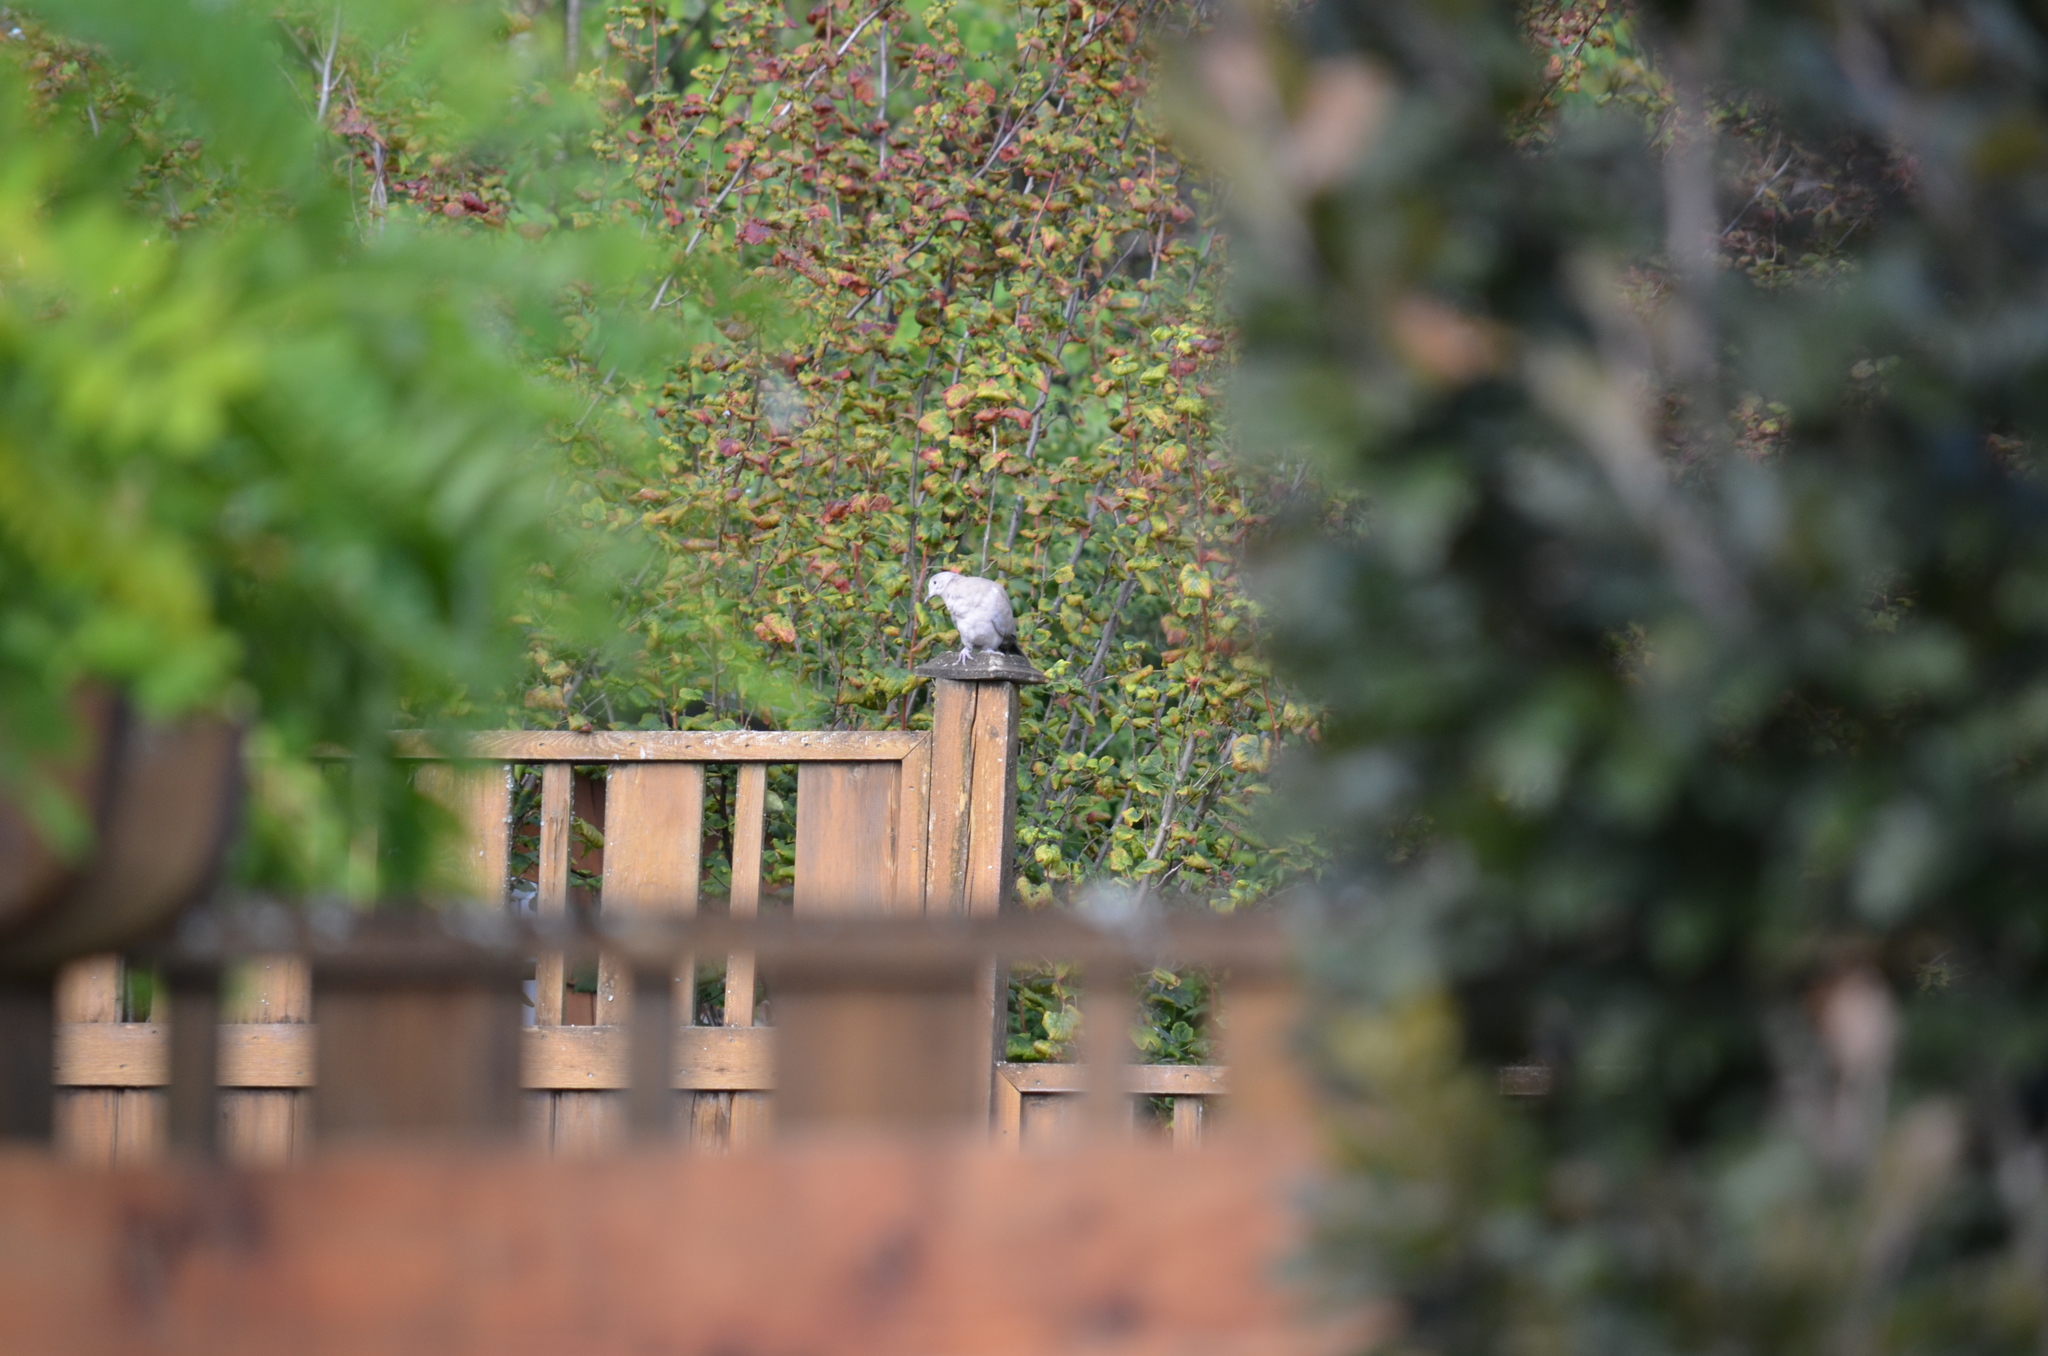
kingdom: Animalia
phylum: Chordata
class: Aves
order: Columbiformes
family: Columbidae
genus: Streptopelia
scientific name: Streptopelia decaocto
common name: Eurasian collared dove
